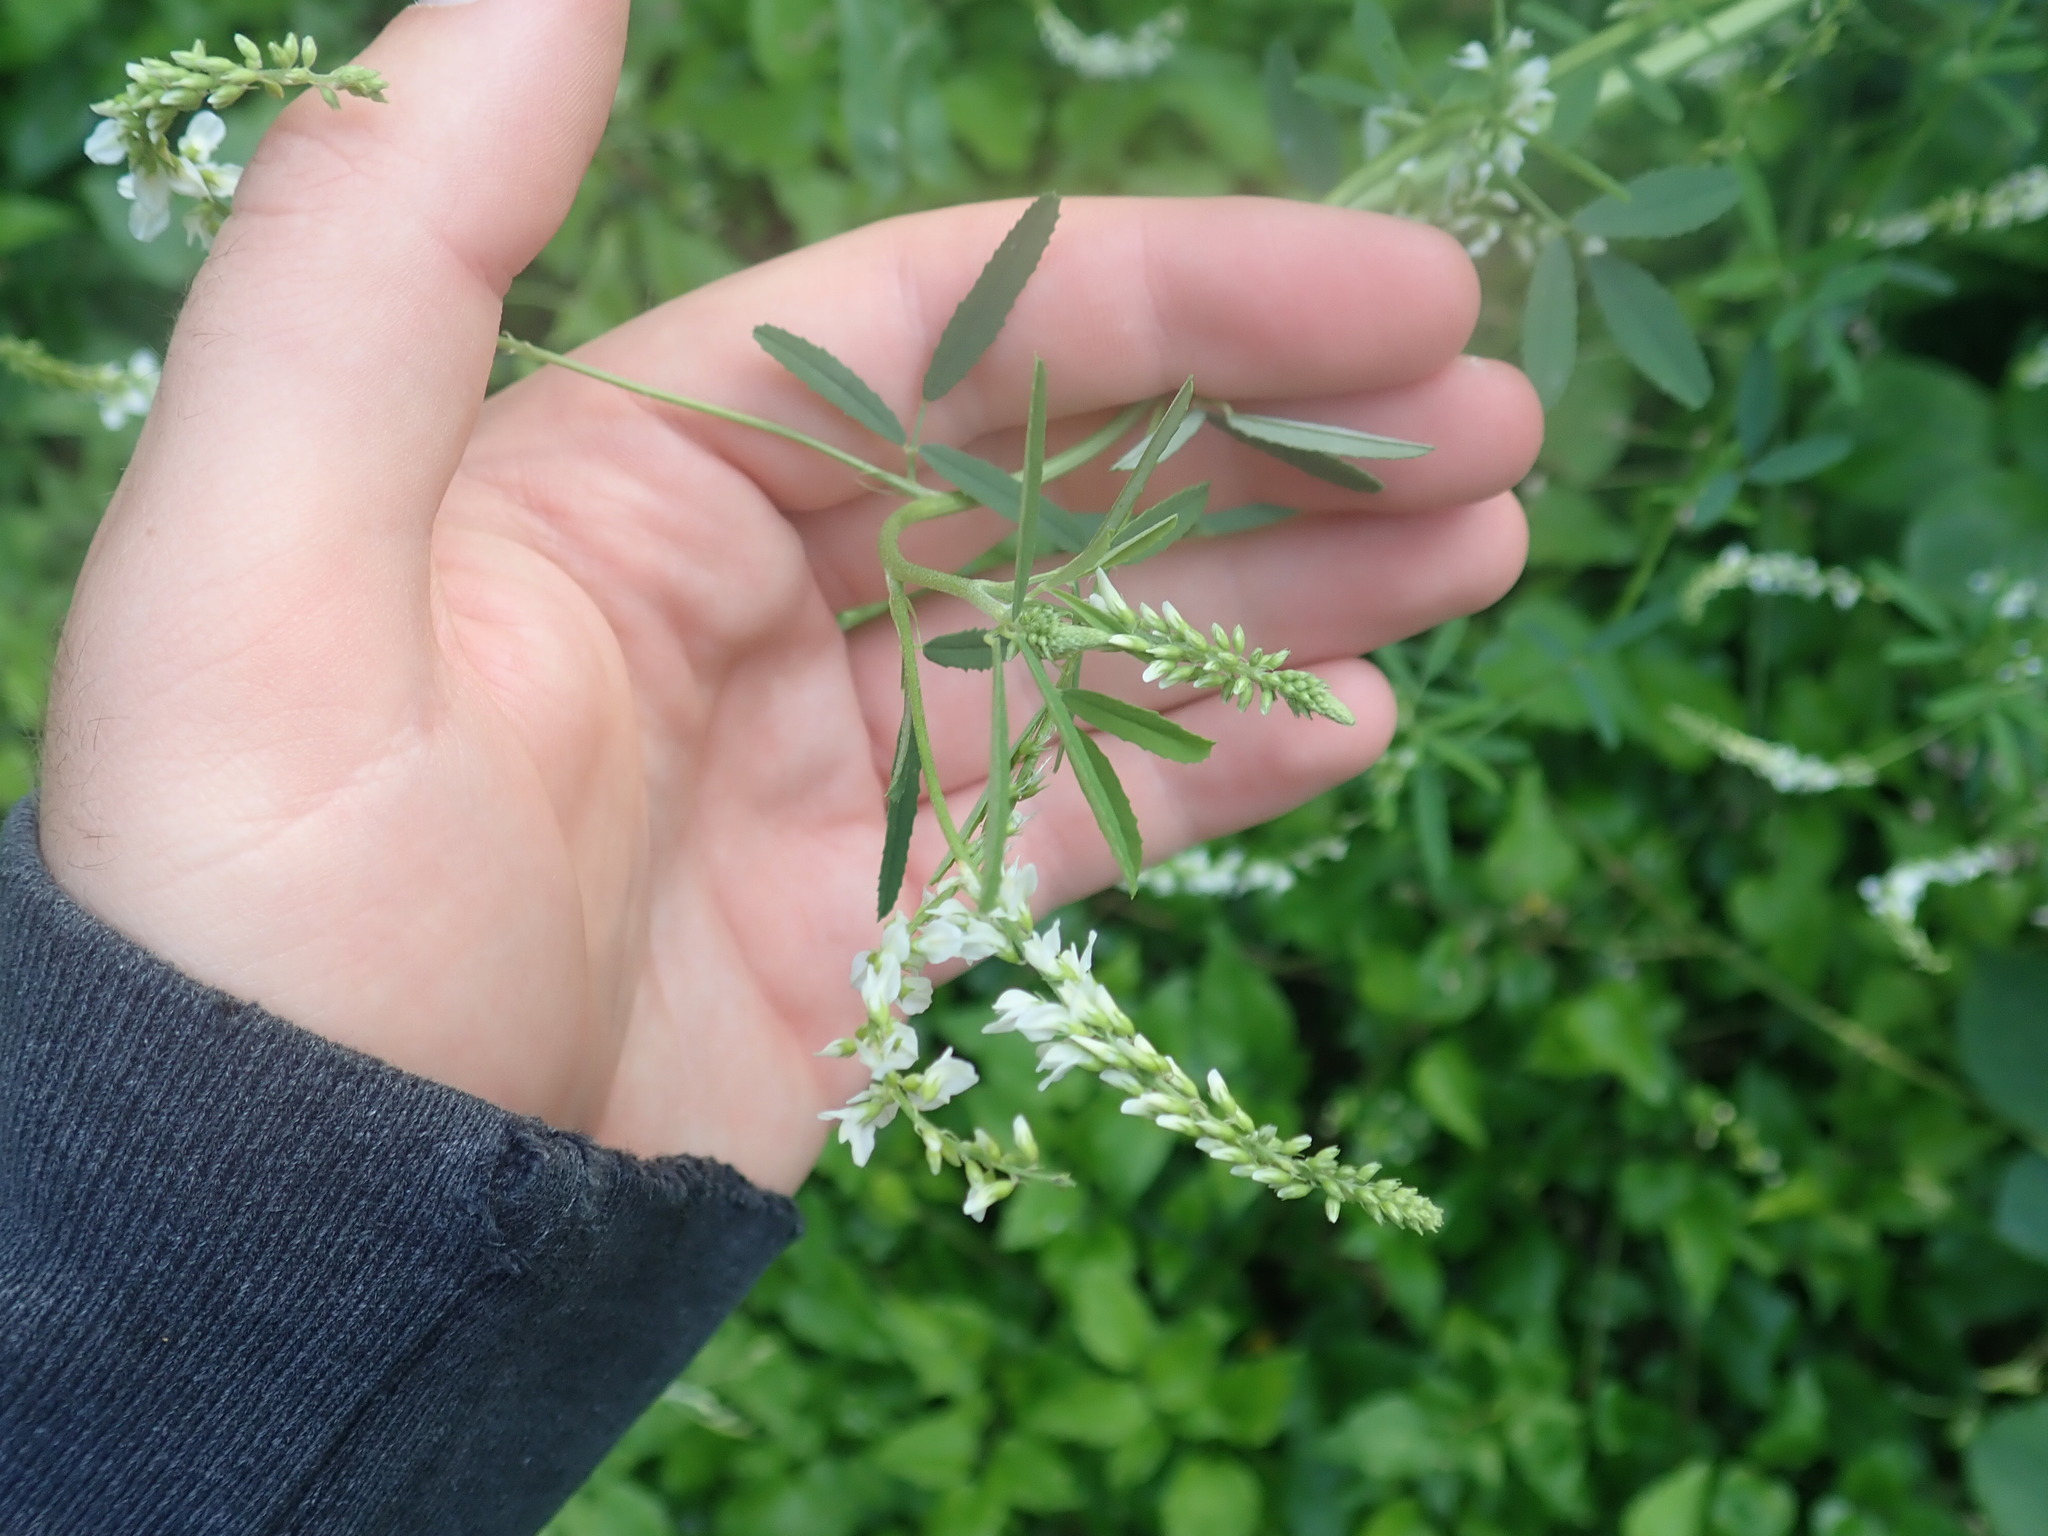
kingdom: Plantae
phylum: Tracheophyta
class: Magnoliopsida
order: Fabales
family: Fabaceae
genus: Melilotus
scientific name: Melilotus albus
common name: White melilot
